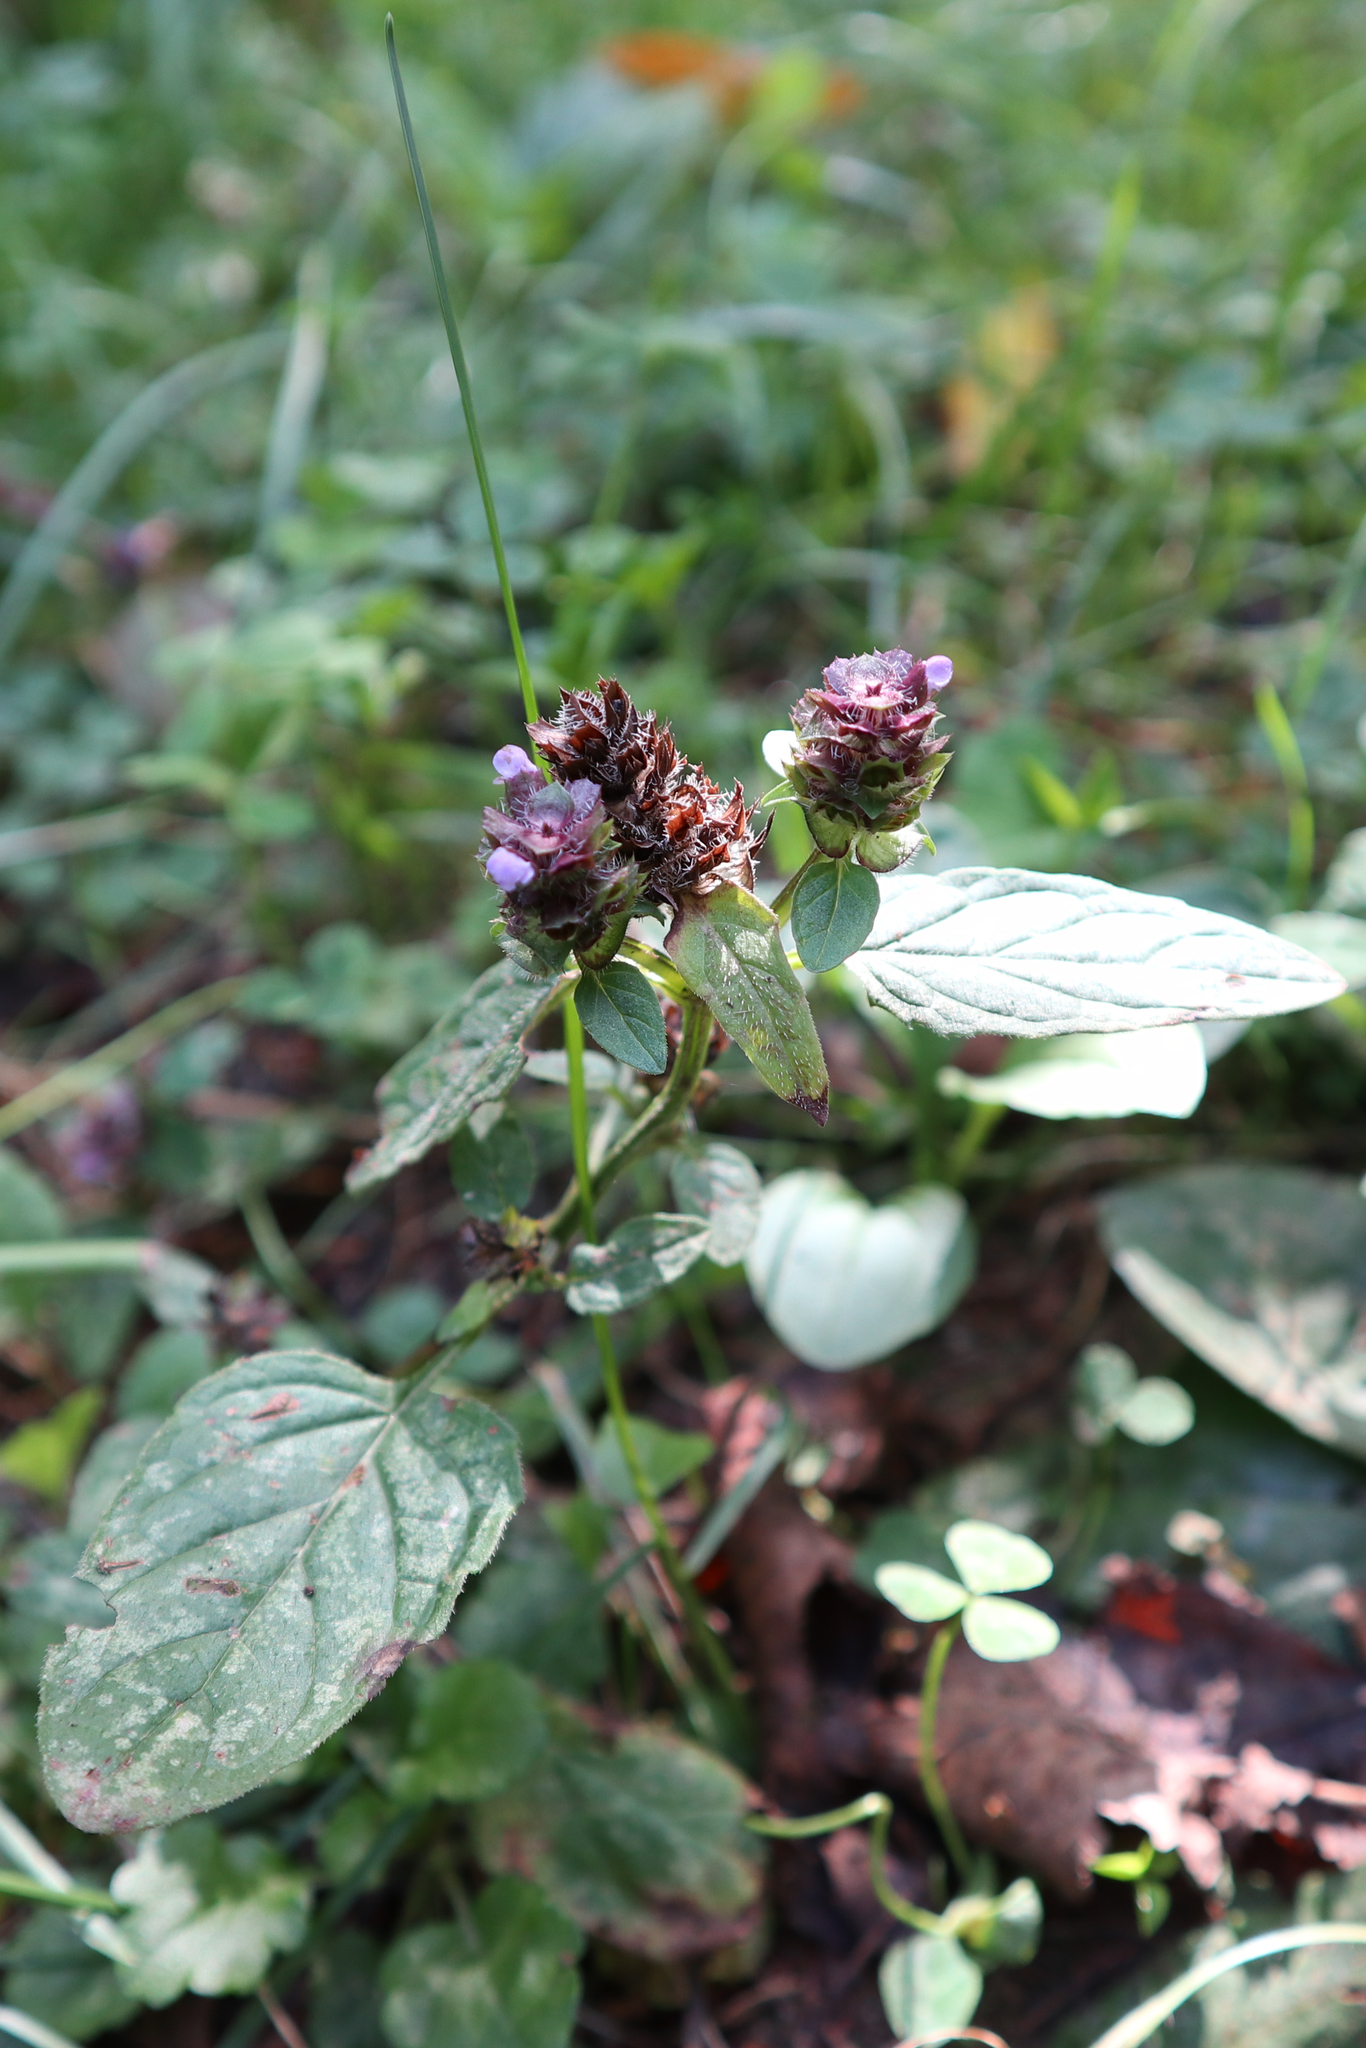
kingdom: Plantae
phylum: Tracheophyta
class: Magnoliopsida
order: Lamiales
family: Lamiaceae
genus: Prunella
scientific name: Prunella vulgaris
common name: Heal-all
